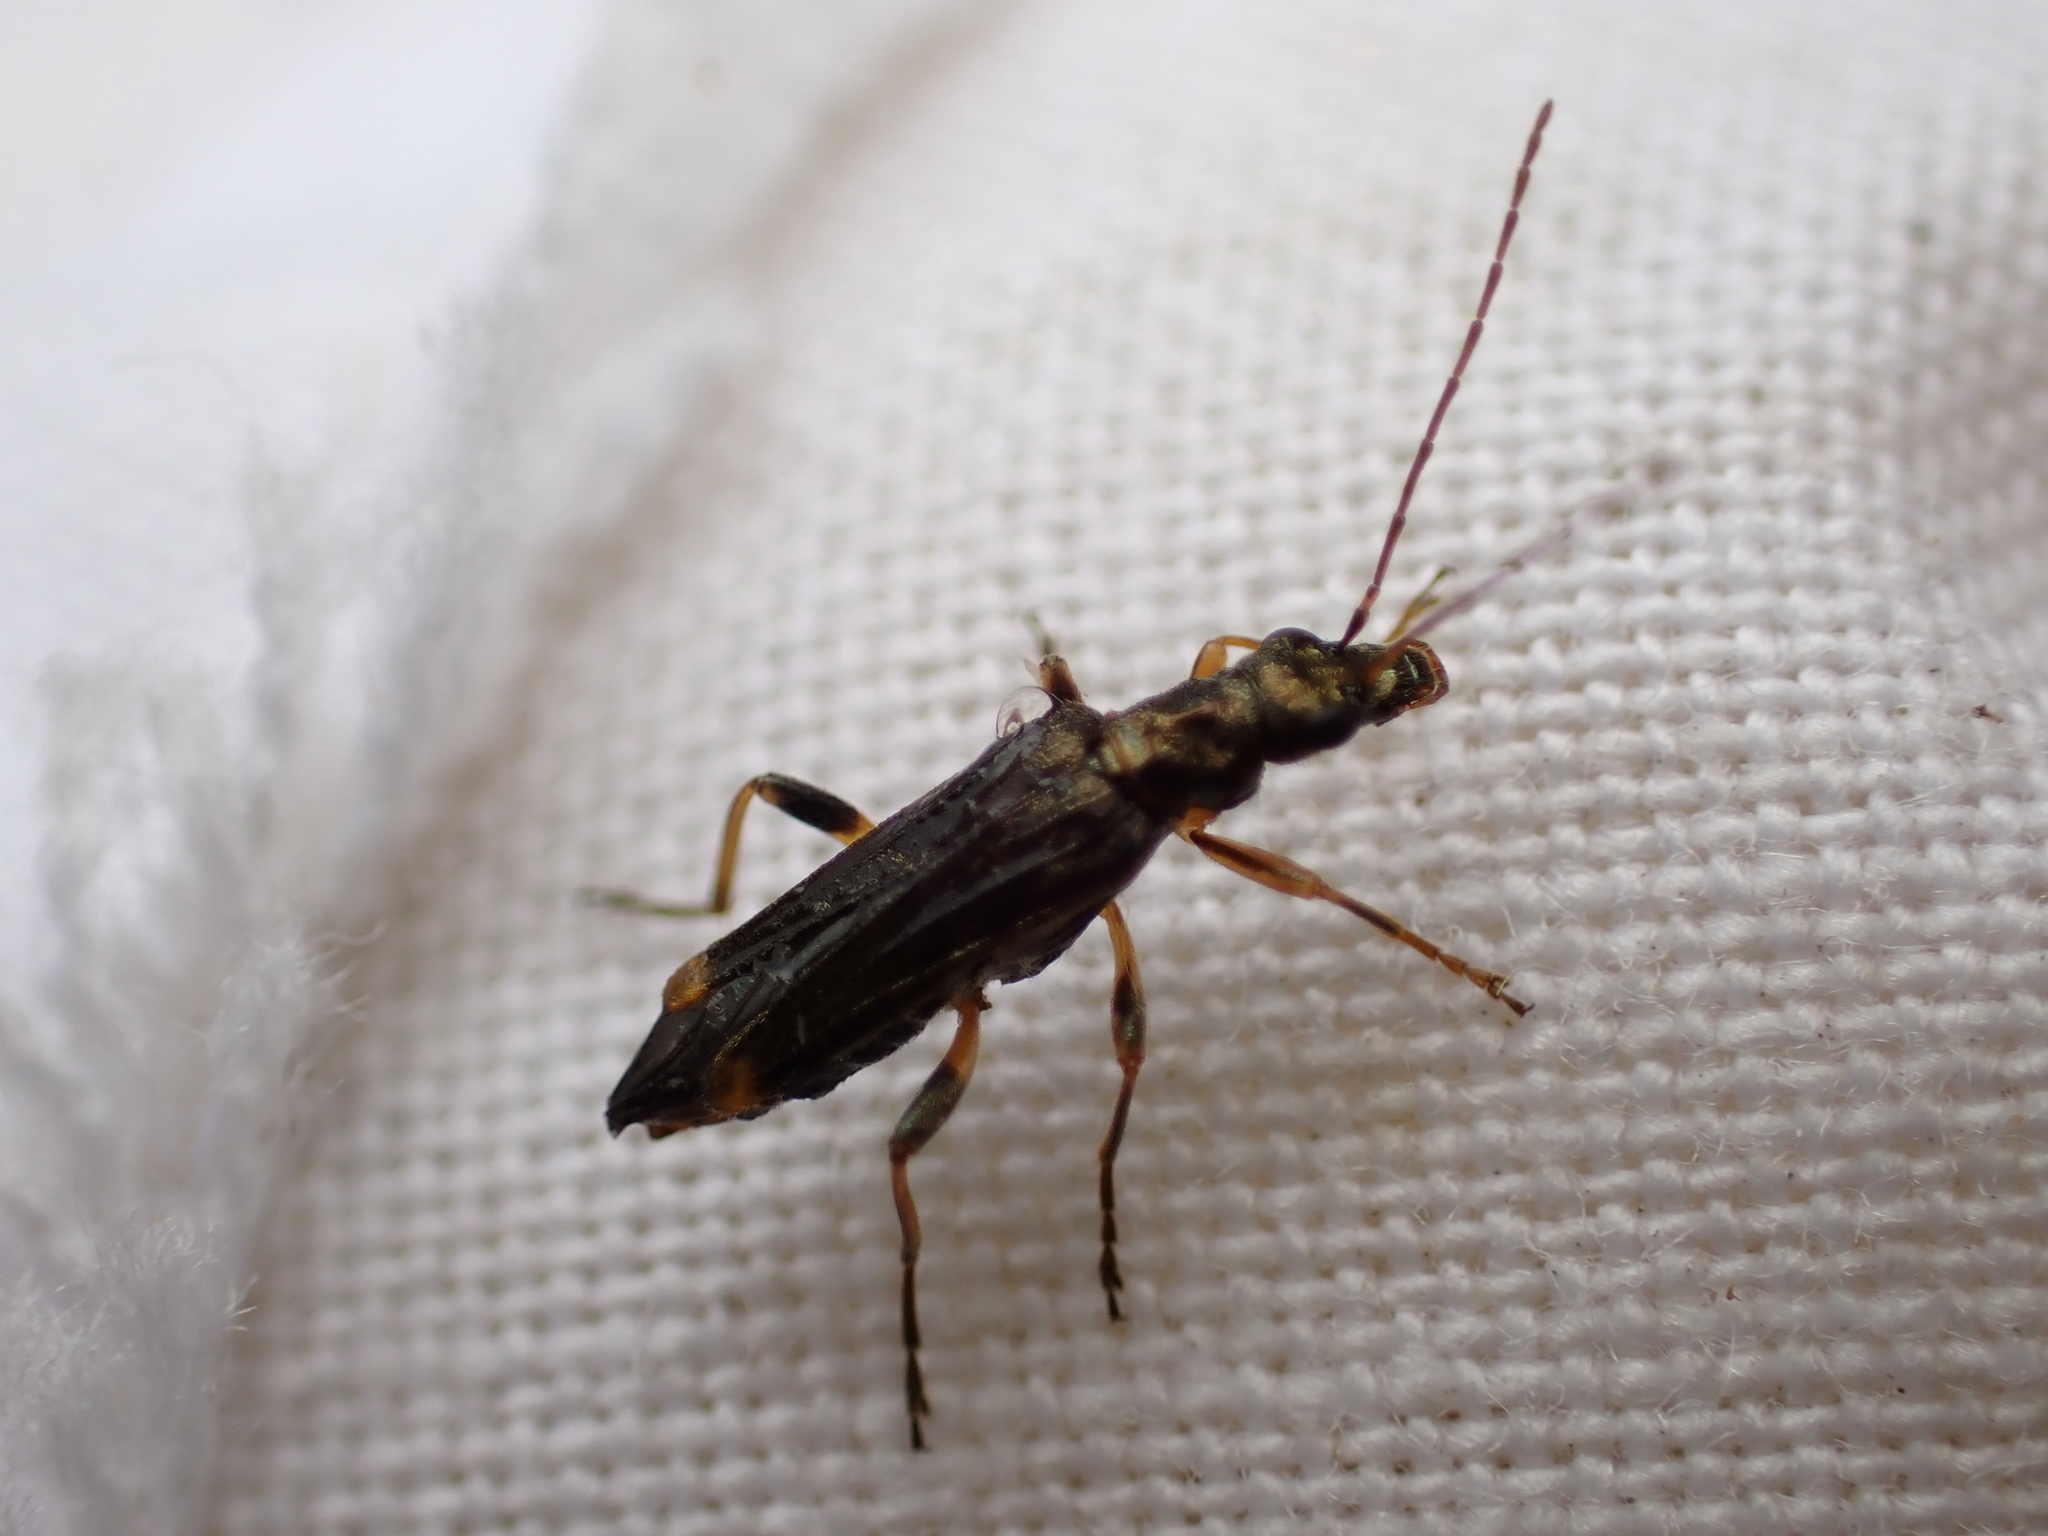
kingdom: Animalia
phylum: Arthropoda
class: Insecta
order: Coleoptera
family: Oedemeridae
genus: Oedemera
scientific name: Oedemera barbara
